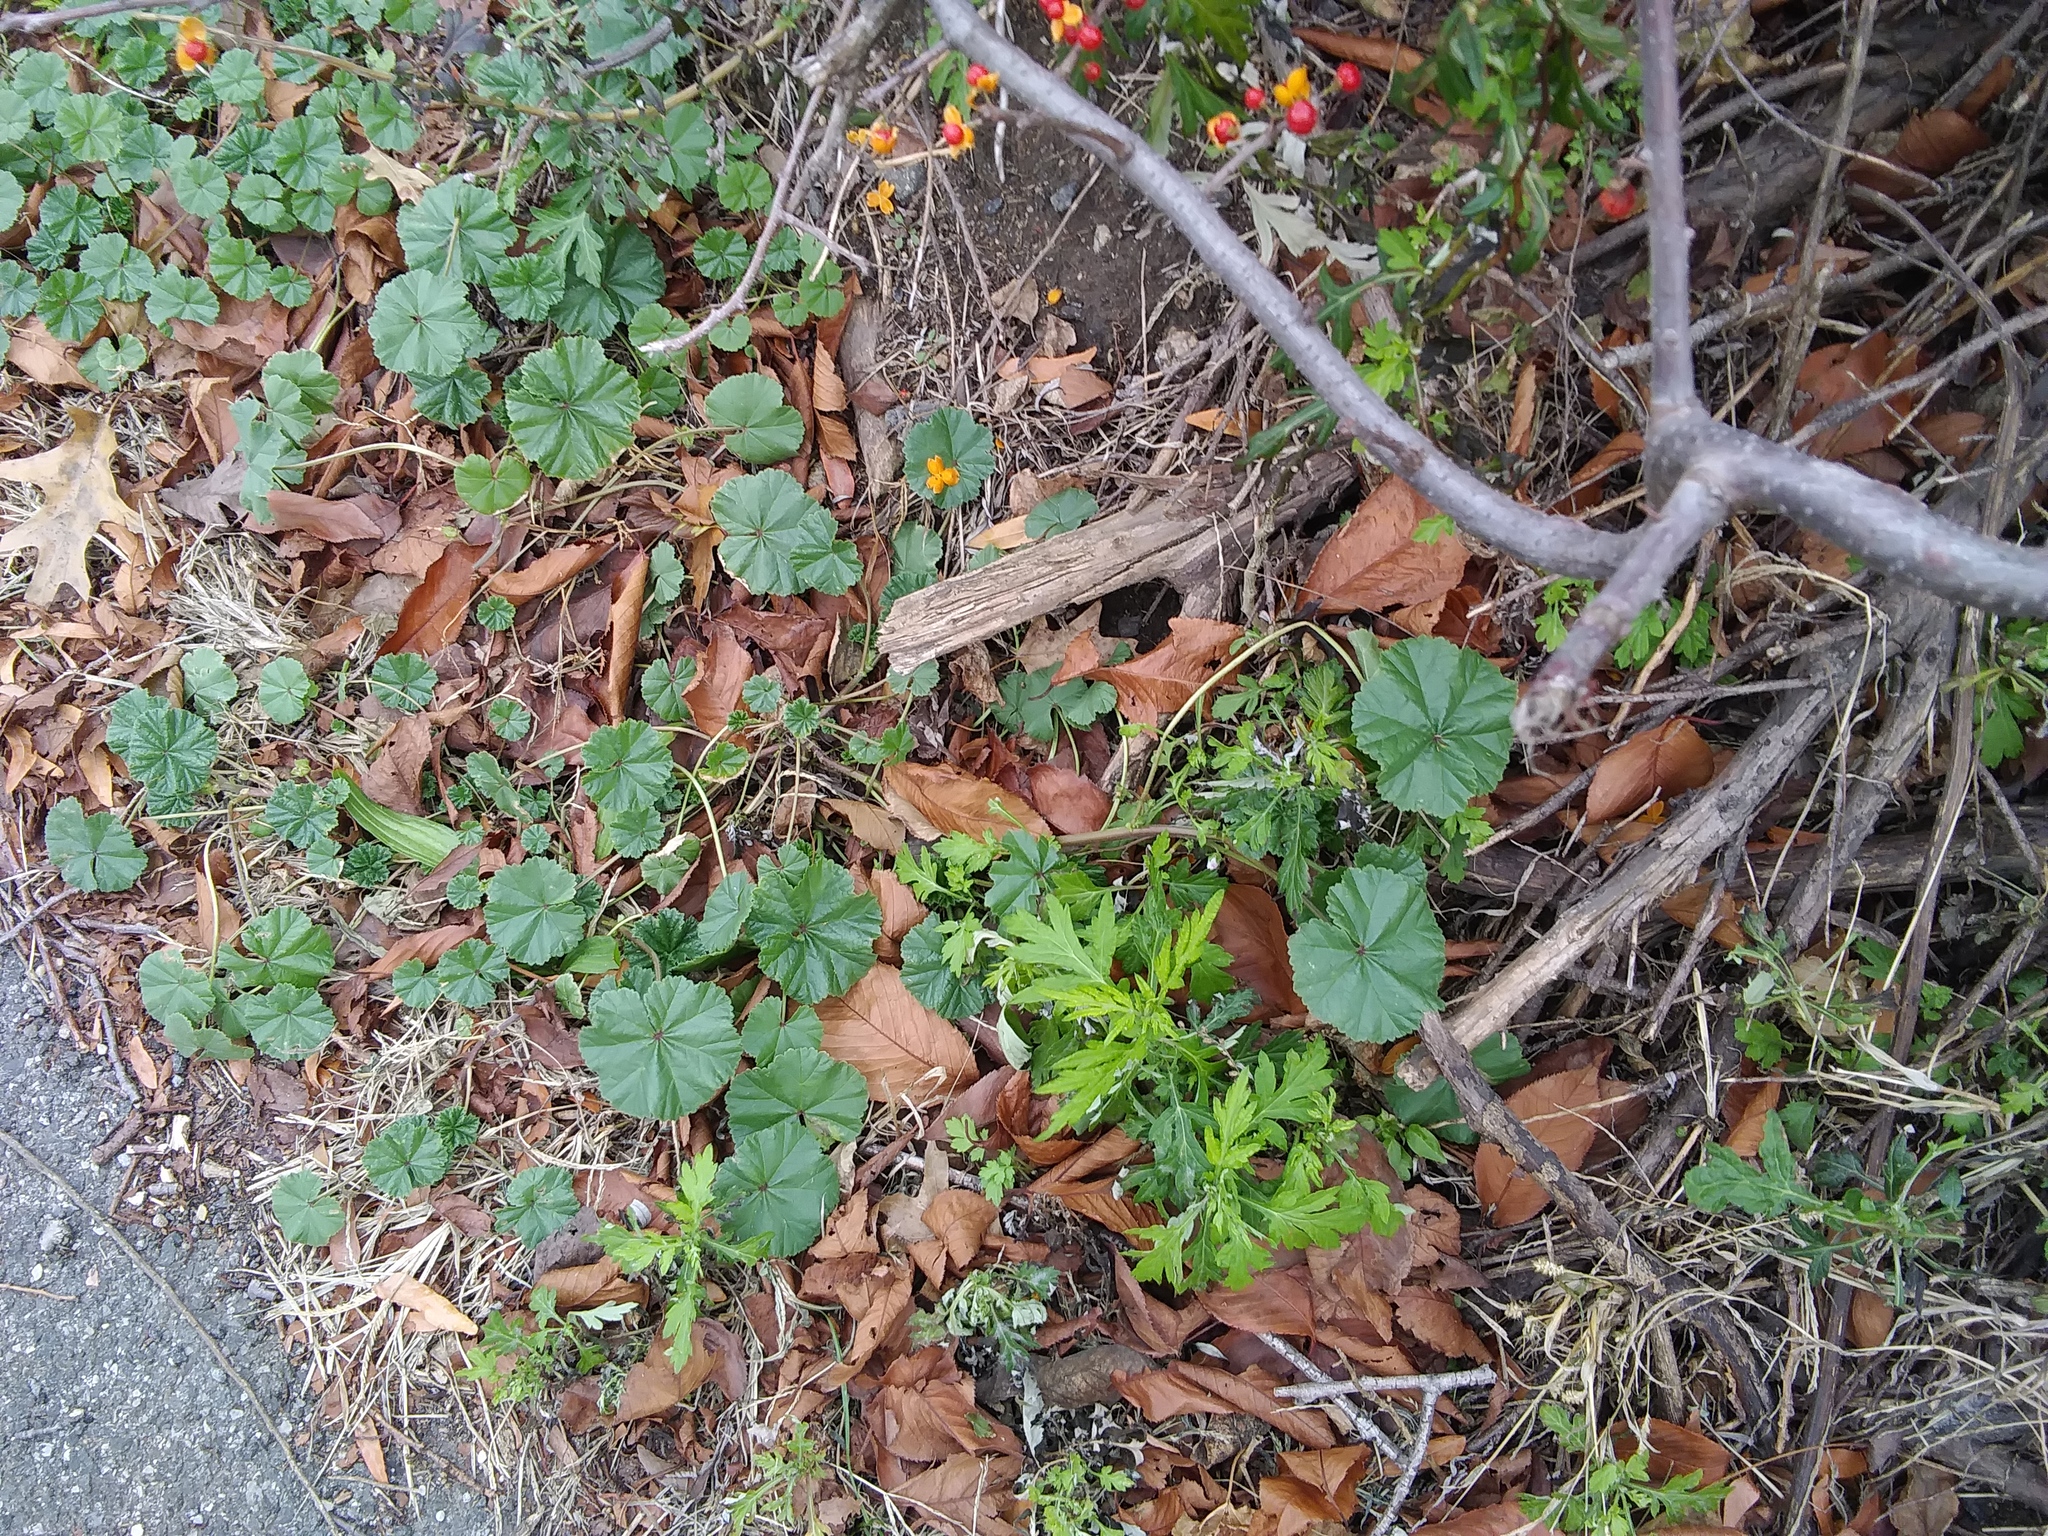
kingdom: Plantae
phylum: Tracheophyta
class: Magnoliopsida
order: Malvales
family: Malvaceae
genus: Malva
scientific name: Malva neglecta
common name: Common mallow
